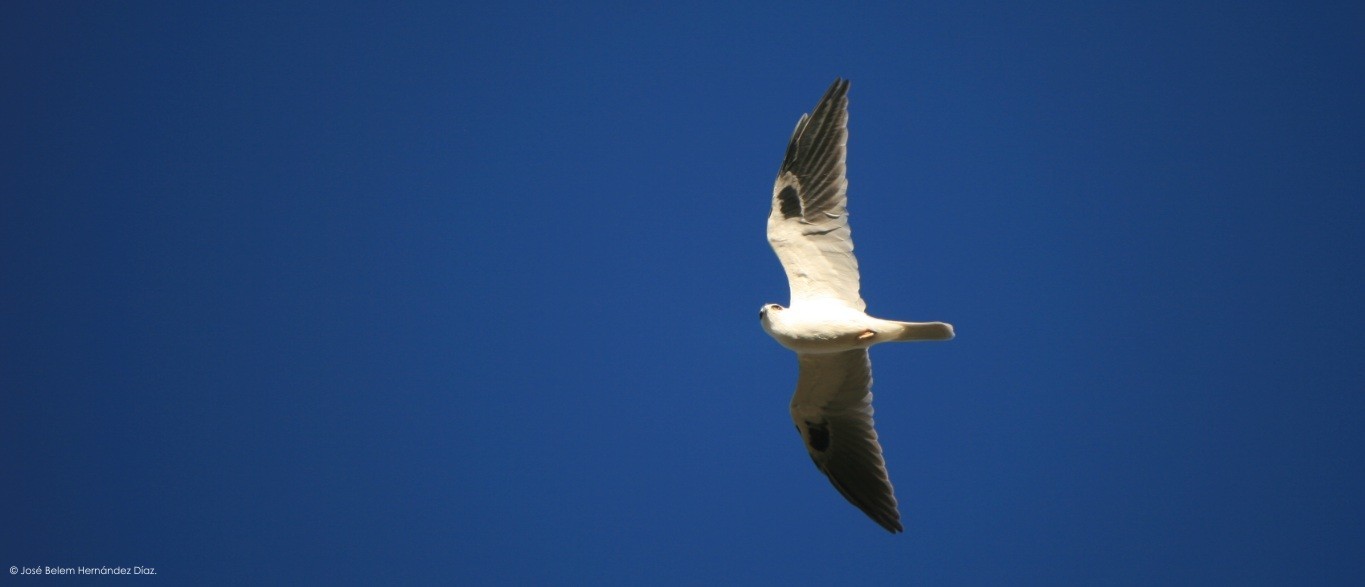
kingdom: Animalia
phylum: Chordata
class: Aves
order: Accipitriformes
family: Accipitridae
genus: Elanus
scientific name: Elanus leucurus
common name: White-tailed kite
